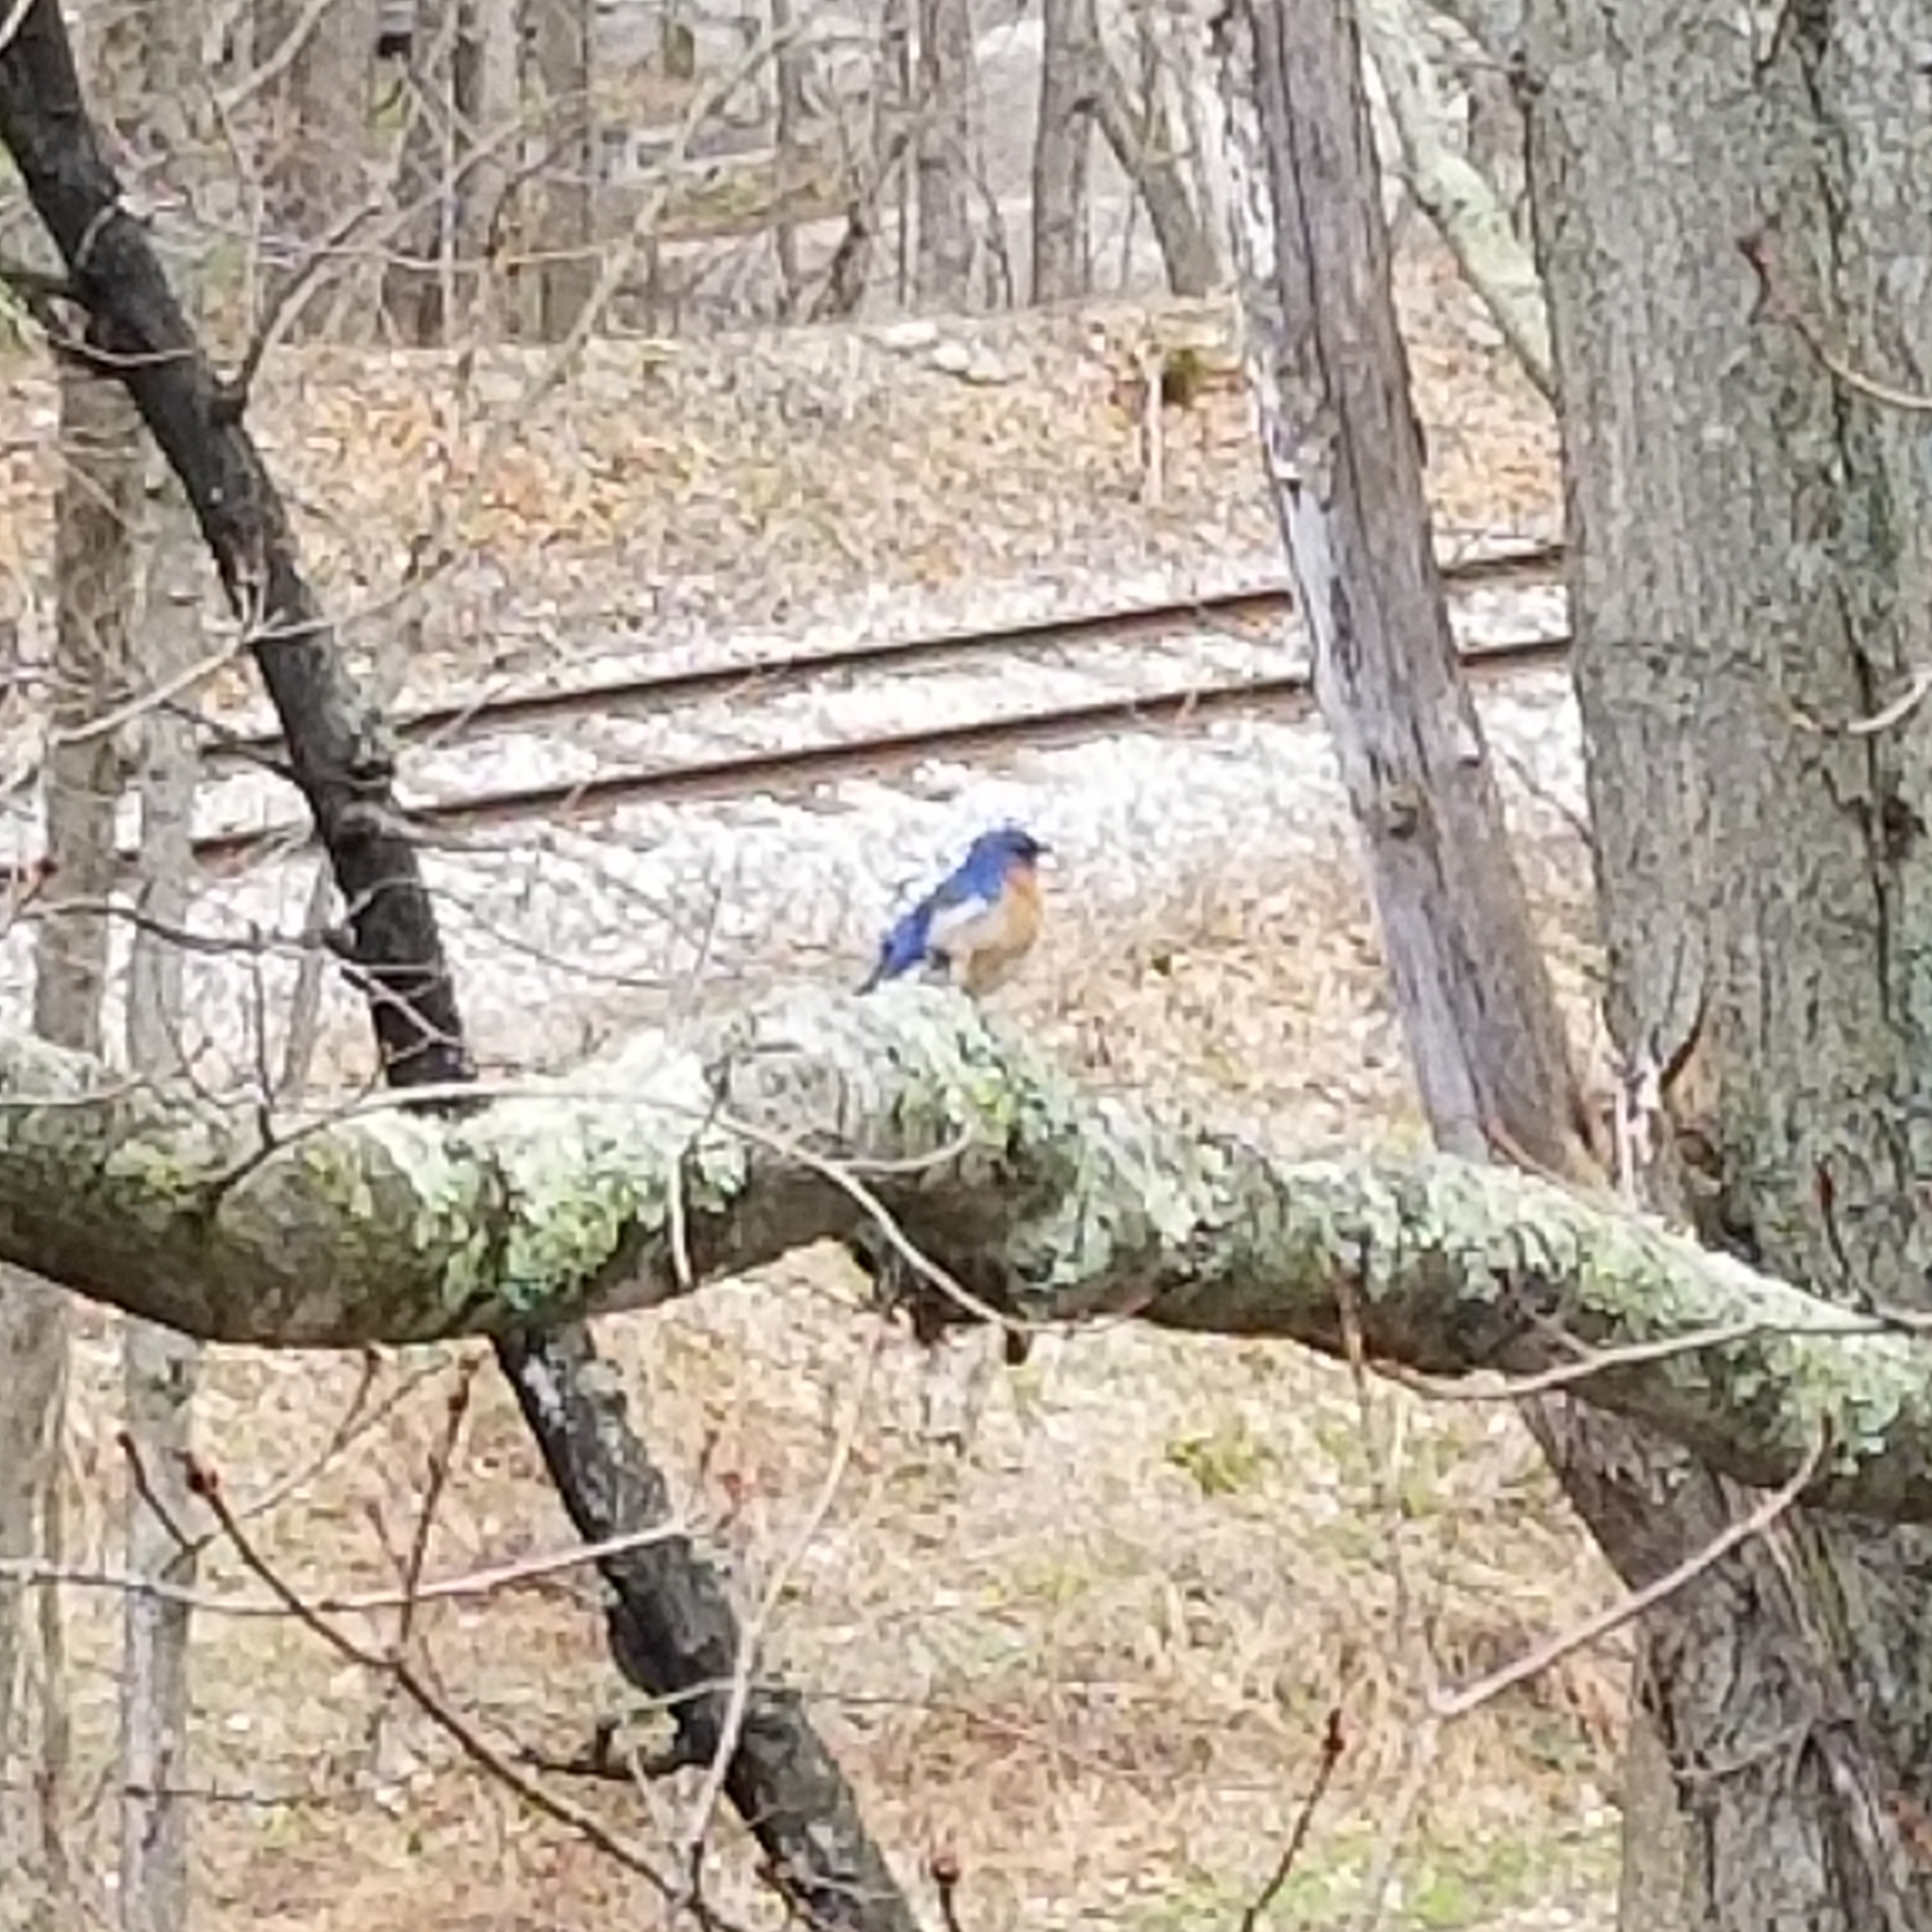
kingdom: Animalia
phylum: Chordata
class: Aves
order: Passeriformes
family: Turdidae
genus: Sialia
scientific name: Sialia sialis
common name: Eastern bluebird
